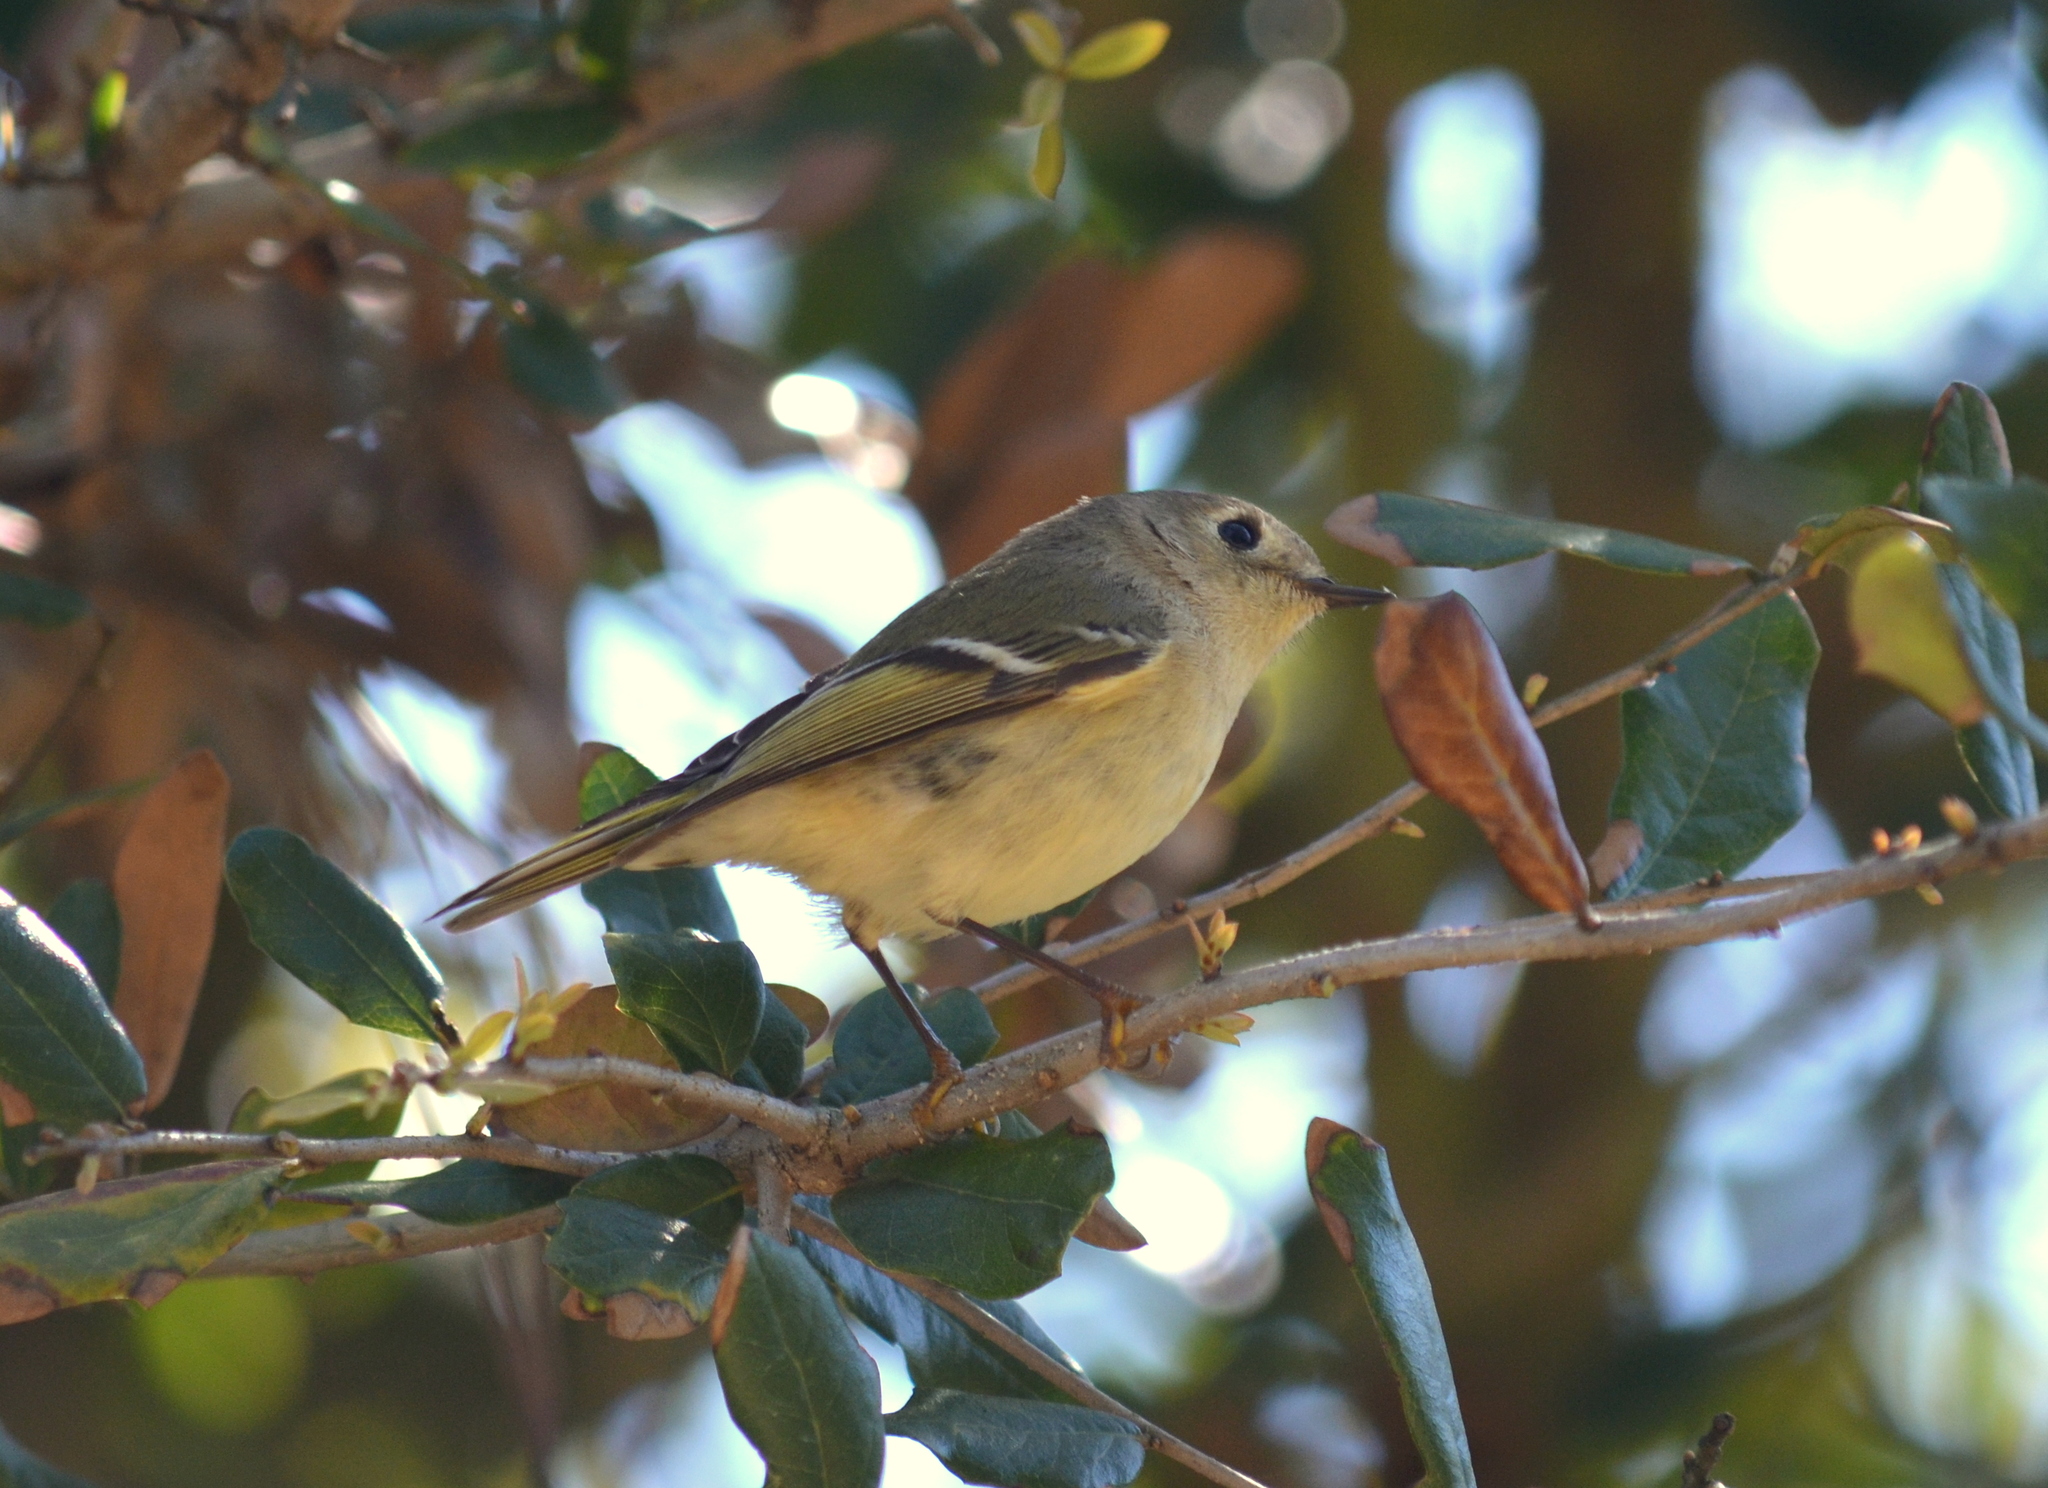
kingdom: Animalia
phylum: Chordata
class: Aves
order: Passeriformes
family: Regulidae
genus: Regulus
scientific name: Regulus calendula
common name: Ruby-crowned kinglet
